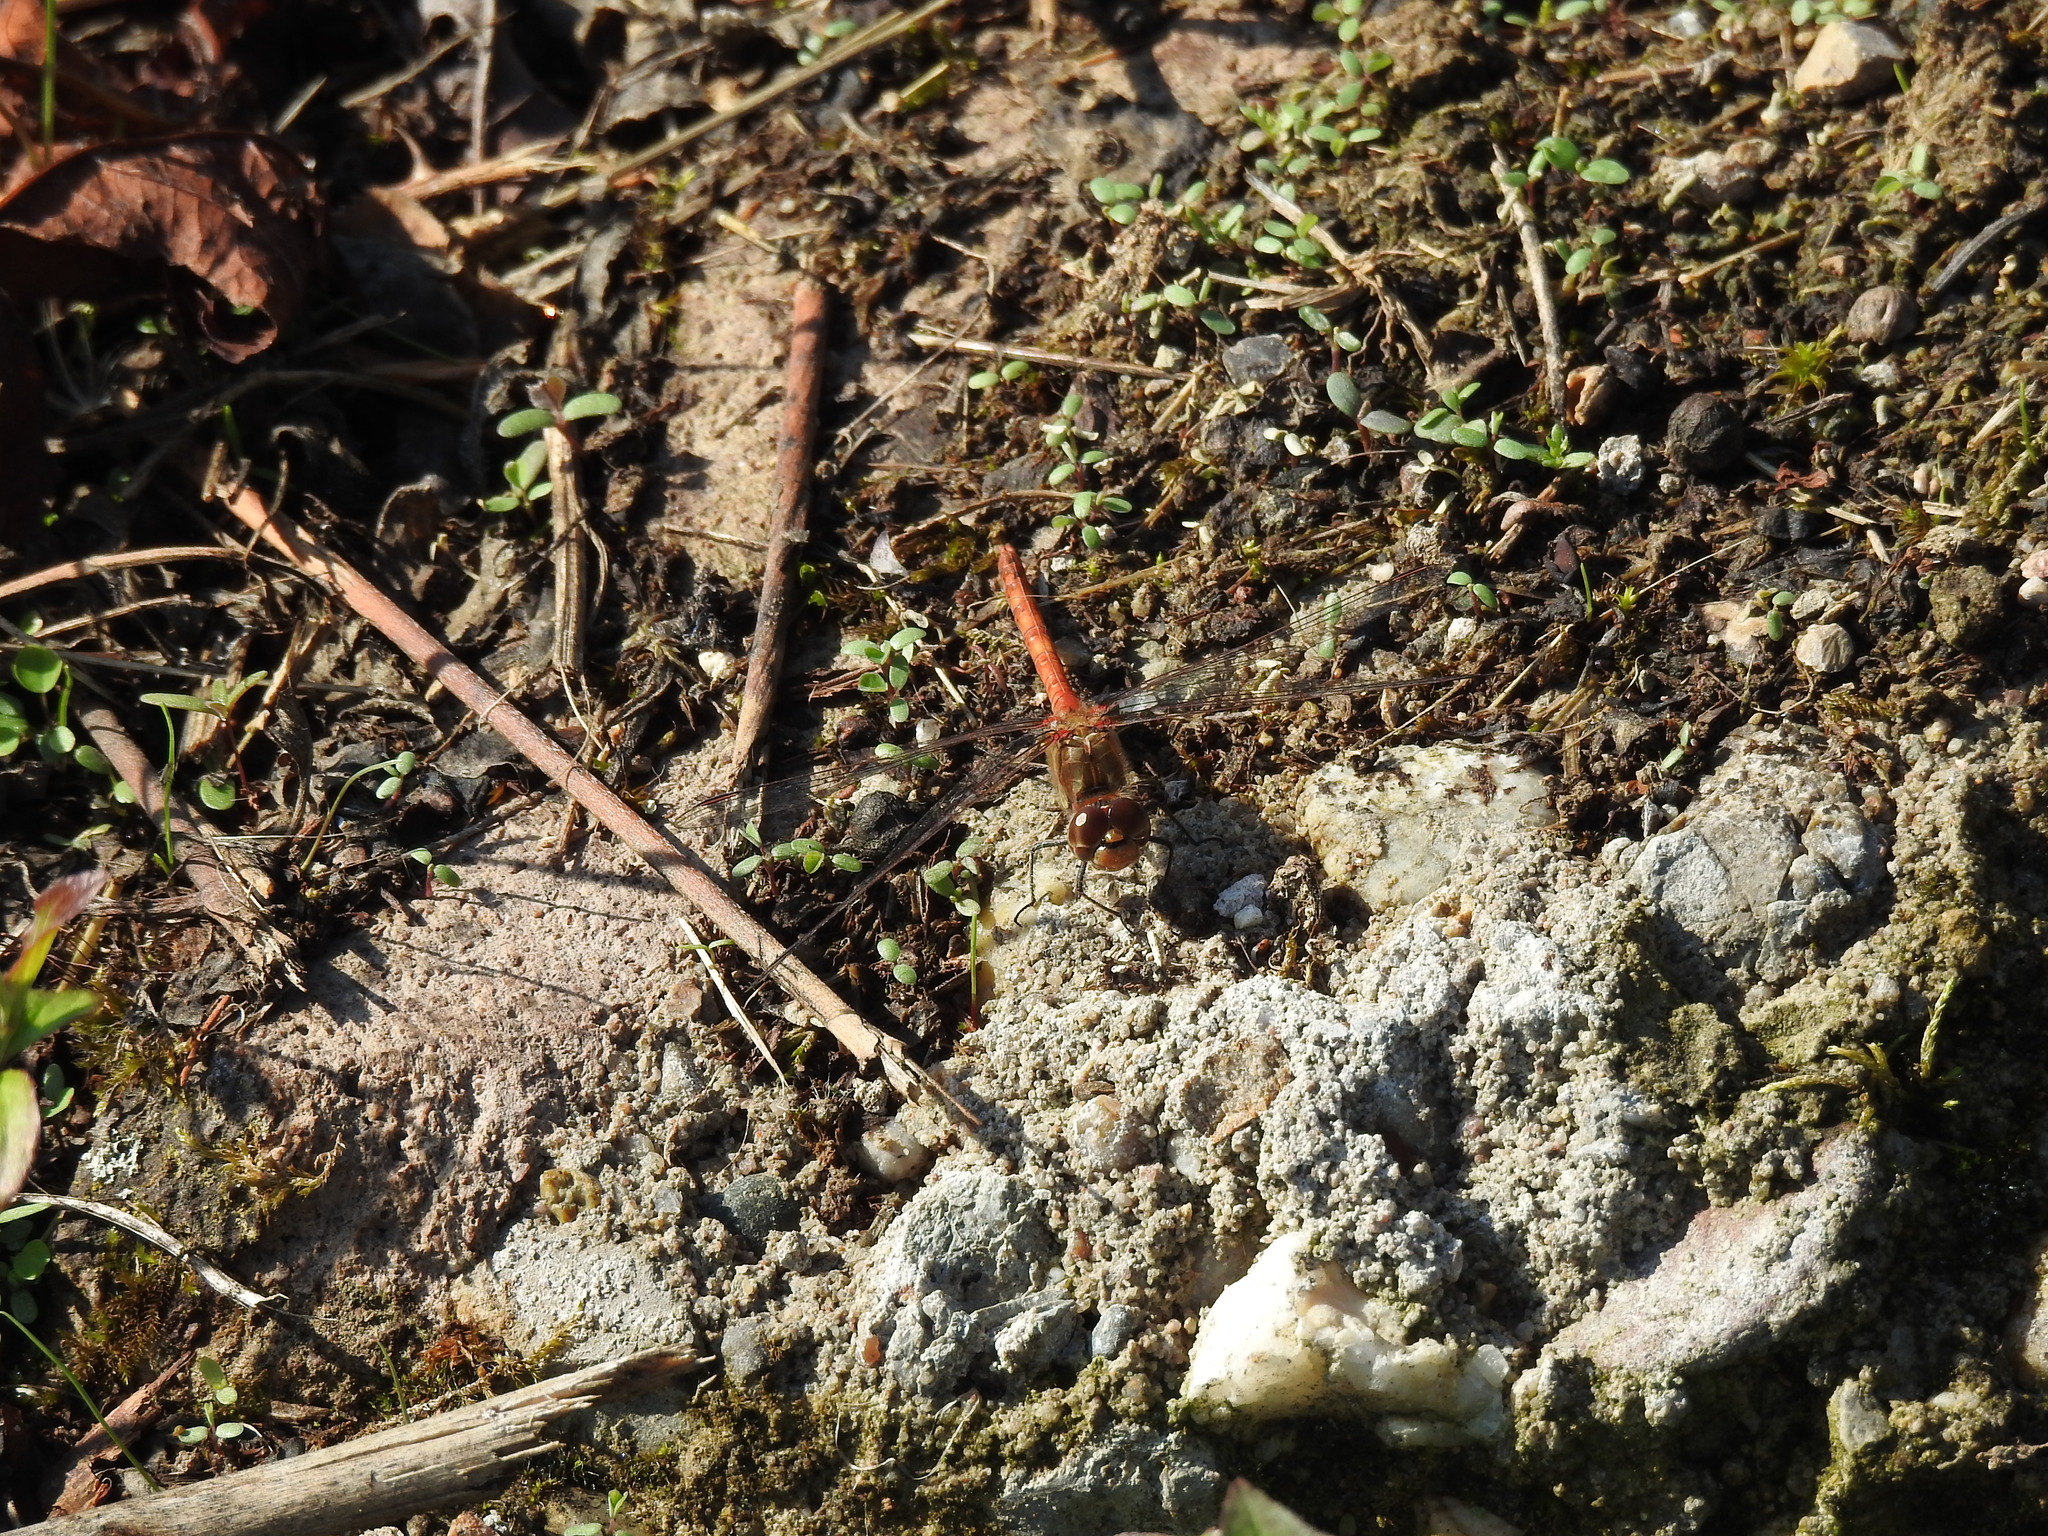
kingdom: Animalia
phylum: Arthropoda
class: Insecta
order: Odonata
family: Libellulidae
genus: Sympetrum
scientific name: Sympetrum striolatum
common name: Common darter
